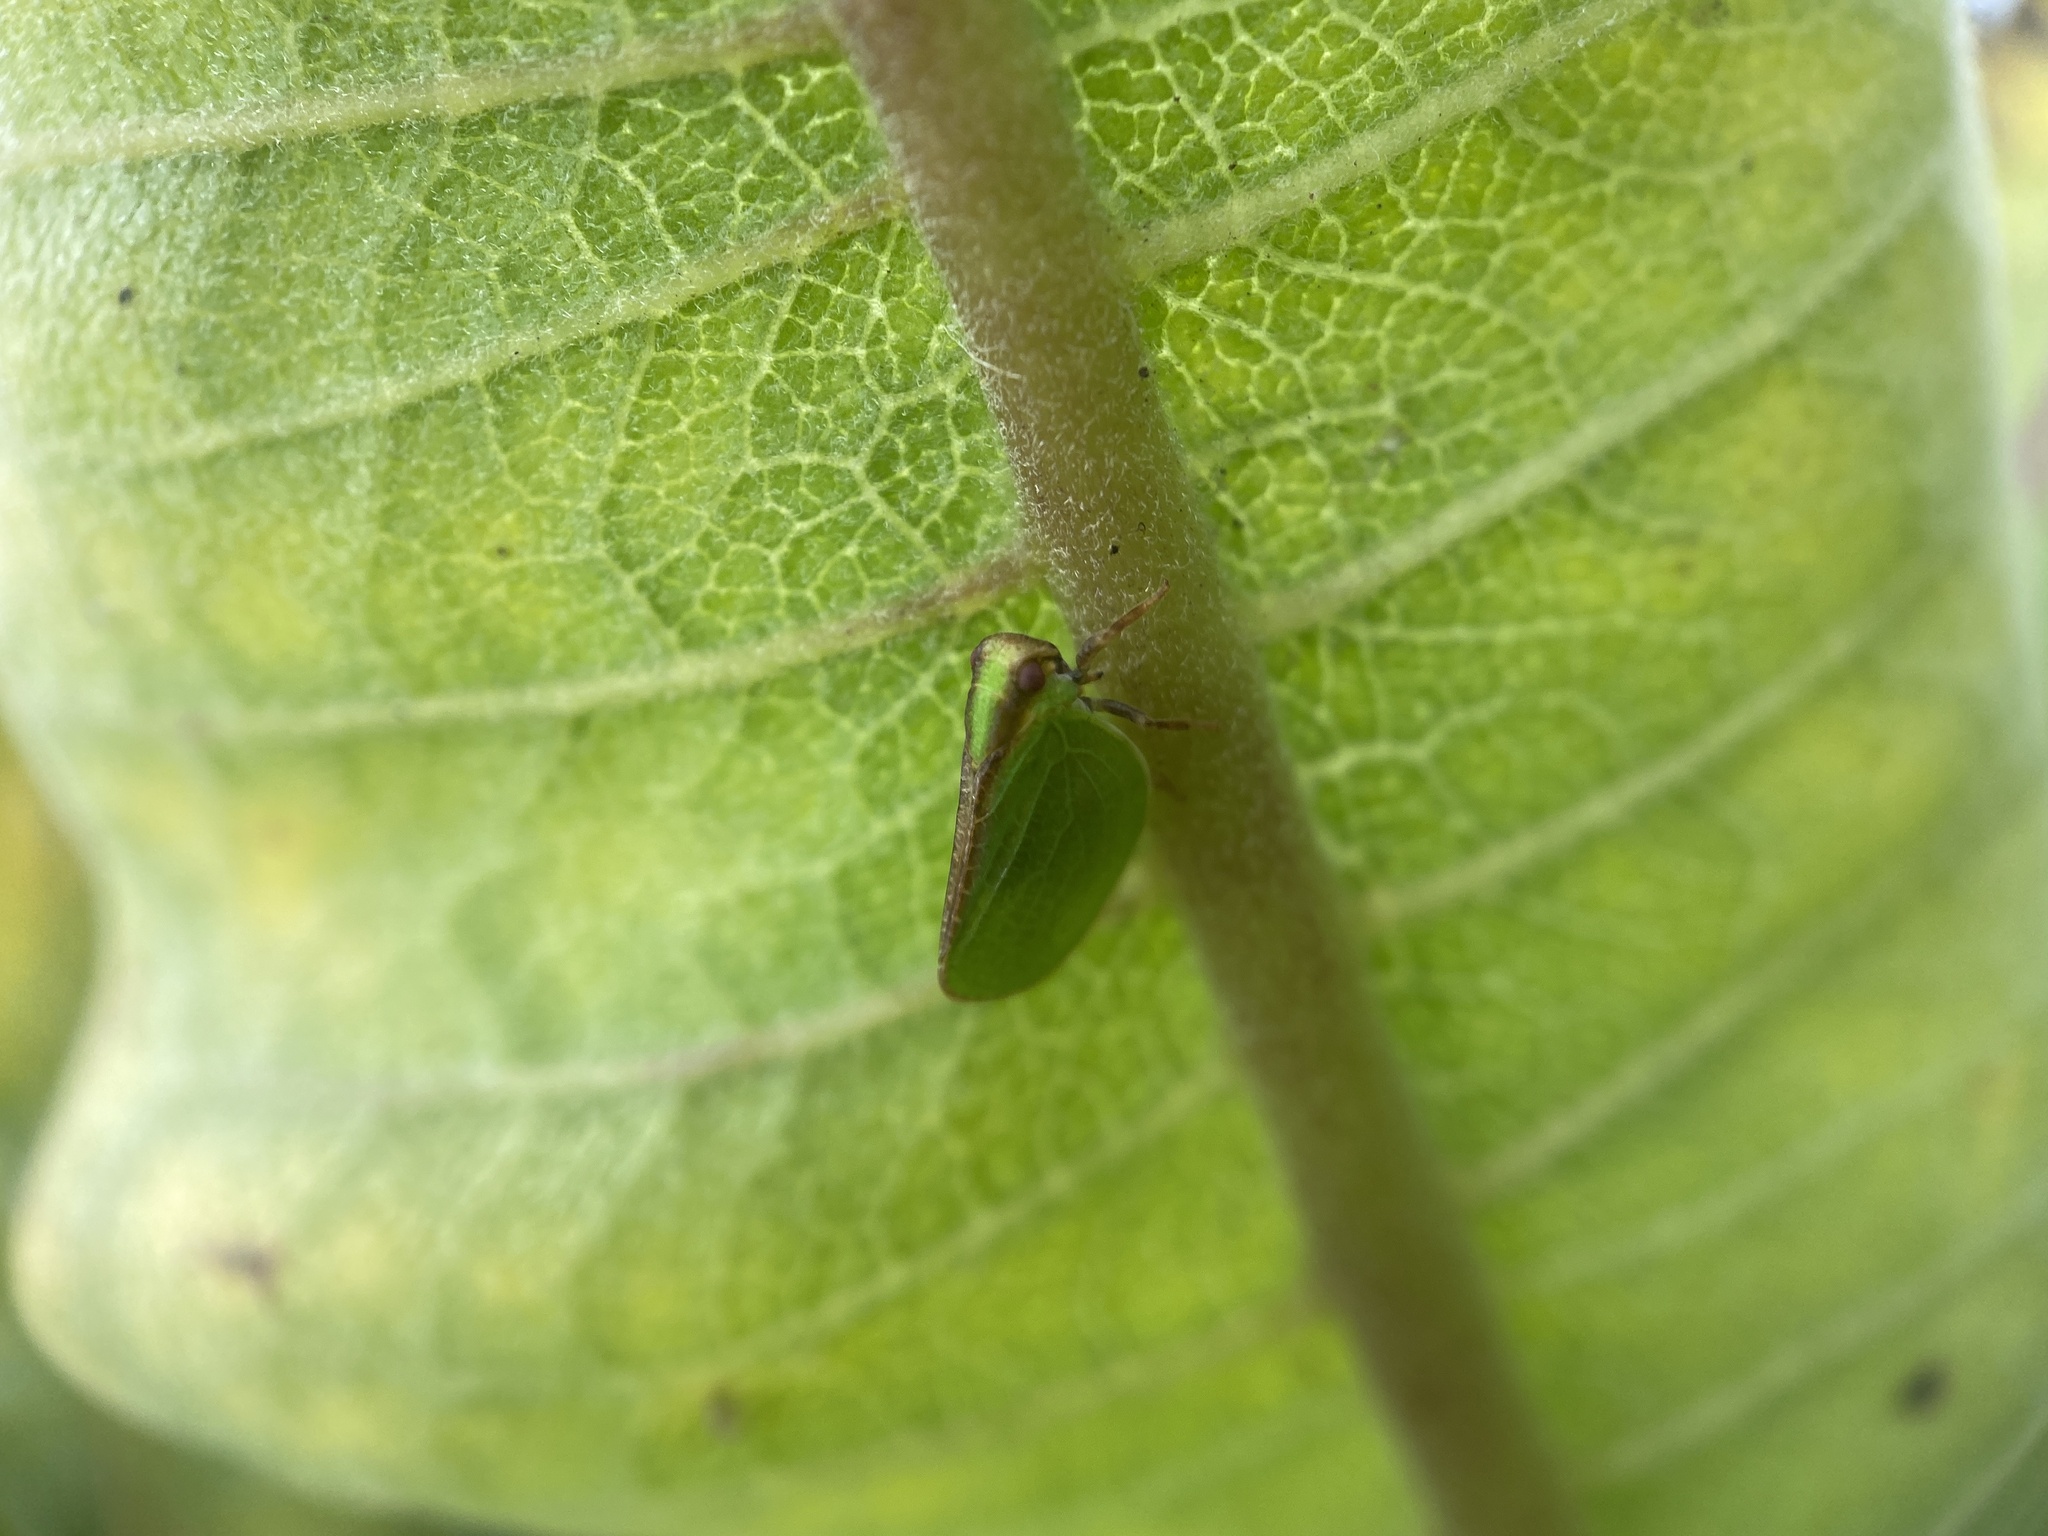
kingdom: Animalia
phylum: Arthropoda
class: Insecta
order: Hemiptera
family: Acanaloniidae
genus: Acanalonia
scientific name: Acanalonia bivittata
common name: Two-striped planthopper
